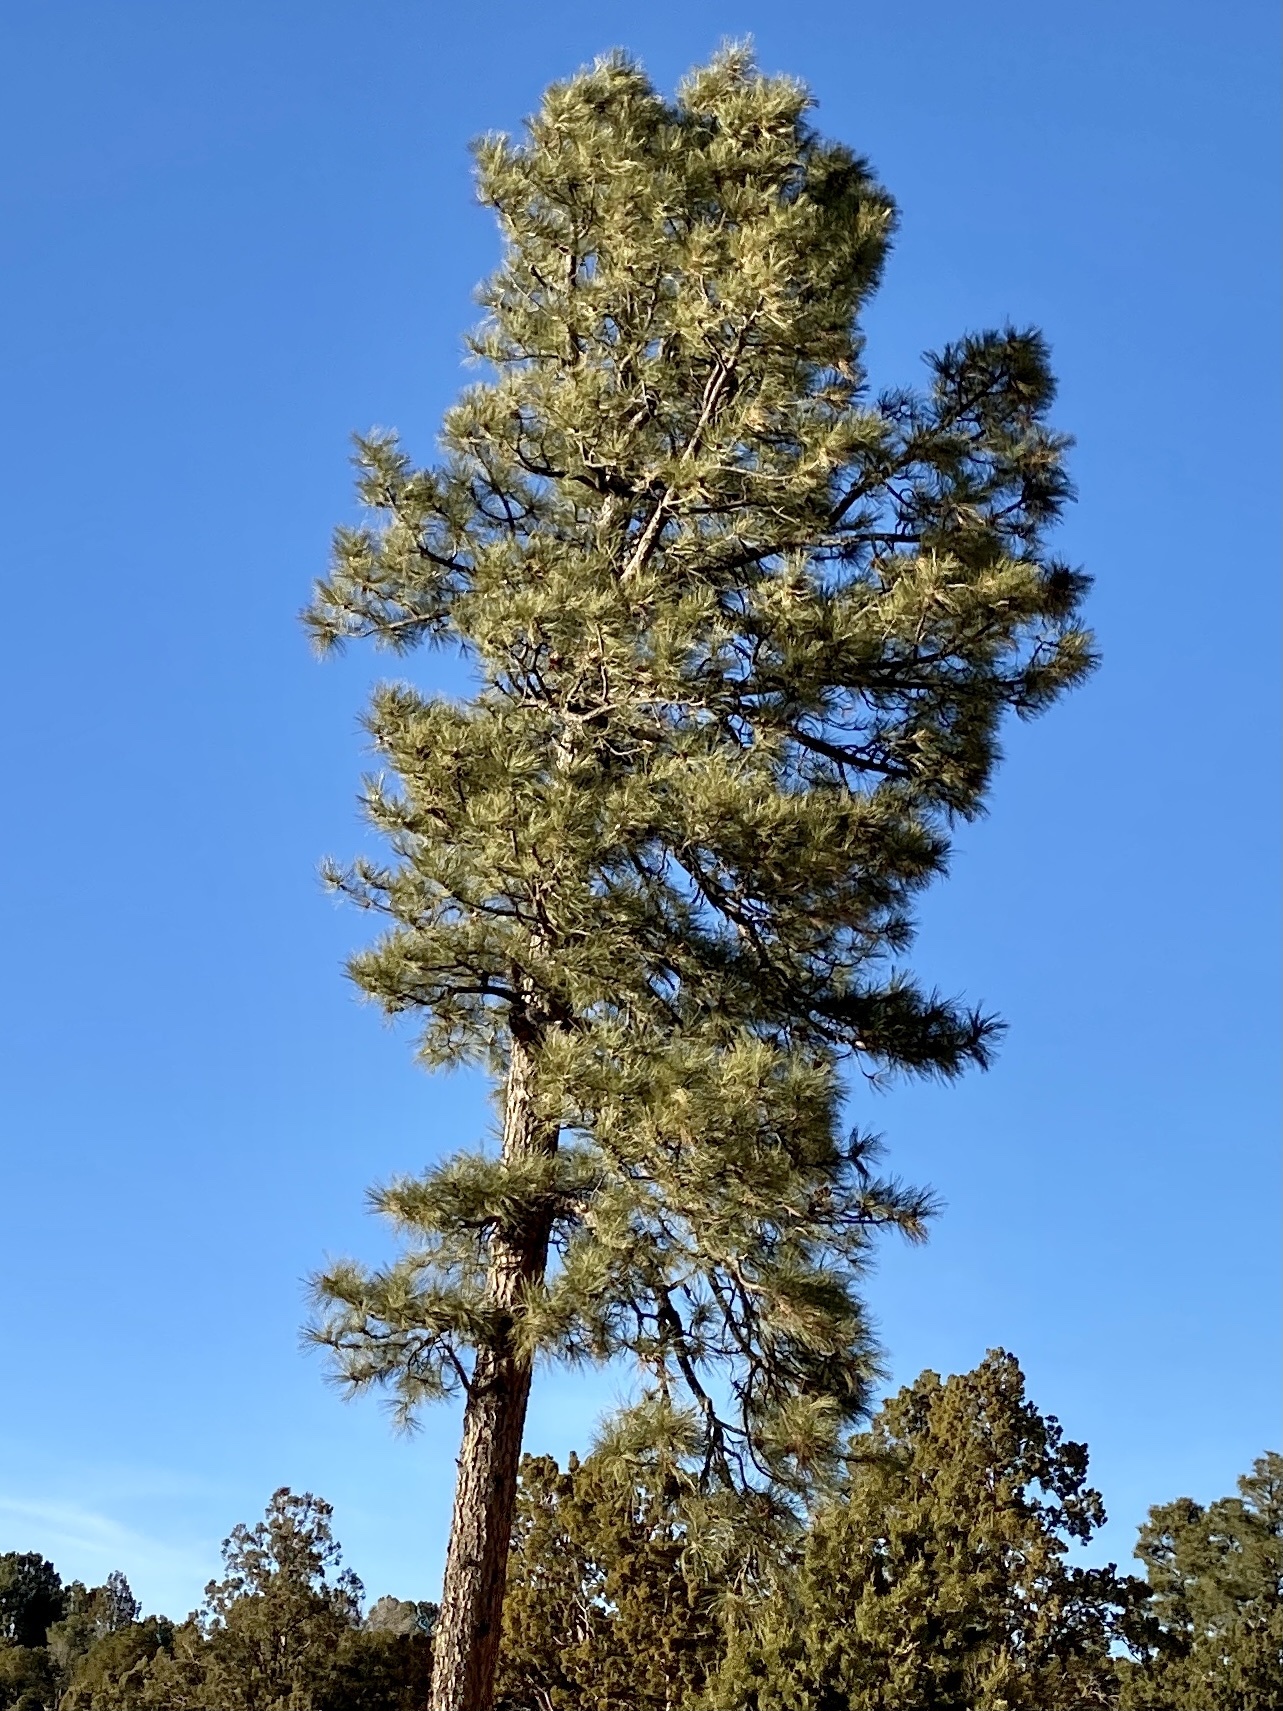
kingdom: Plantae
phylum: Tracheophyta
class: Pinopsida
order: Pinales
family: Pinaceae
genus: Pinus
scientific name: Pinus ponderosa
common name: Western yellow-pine
